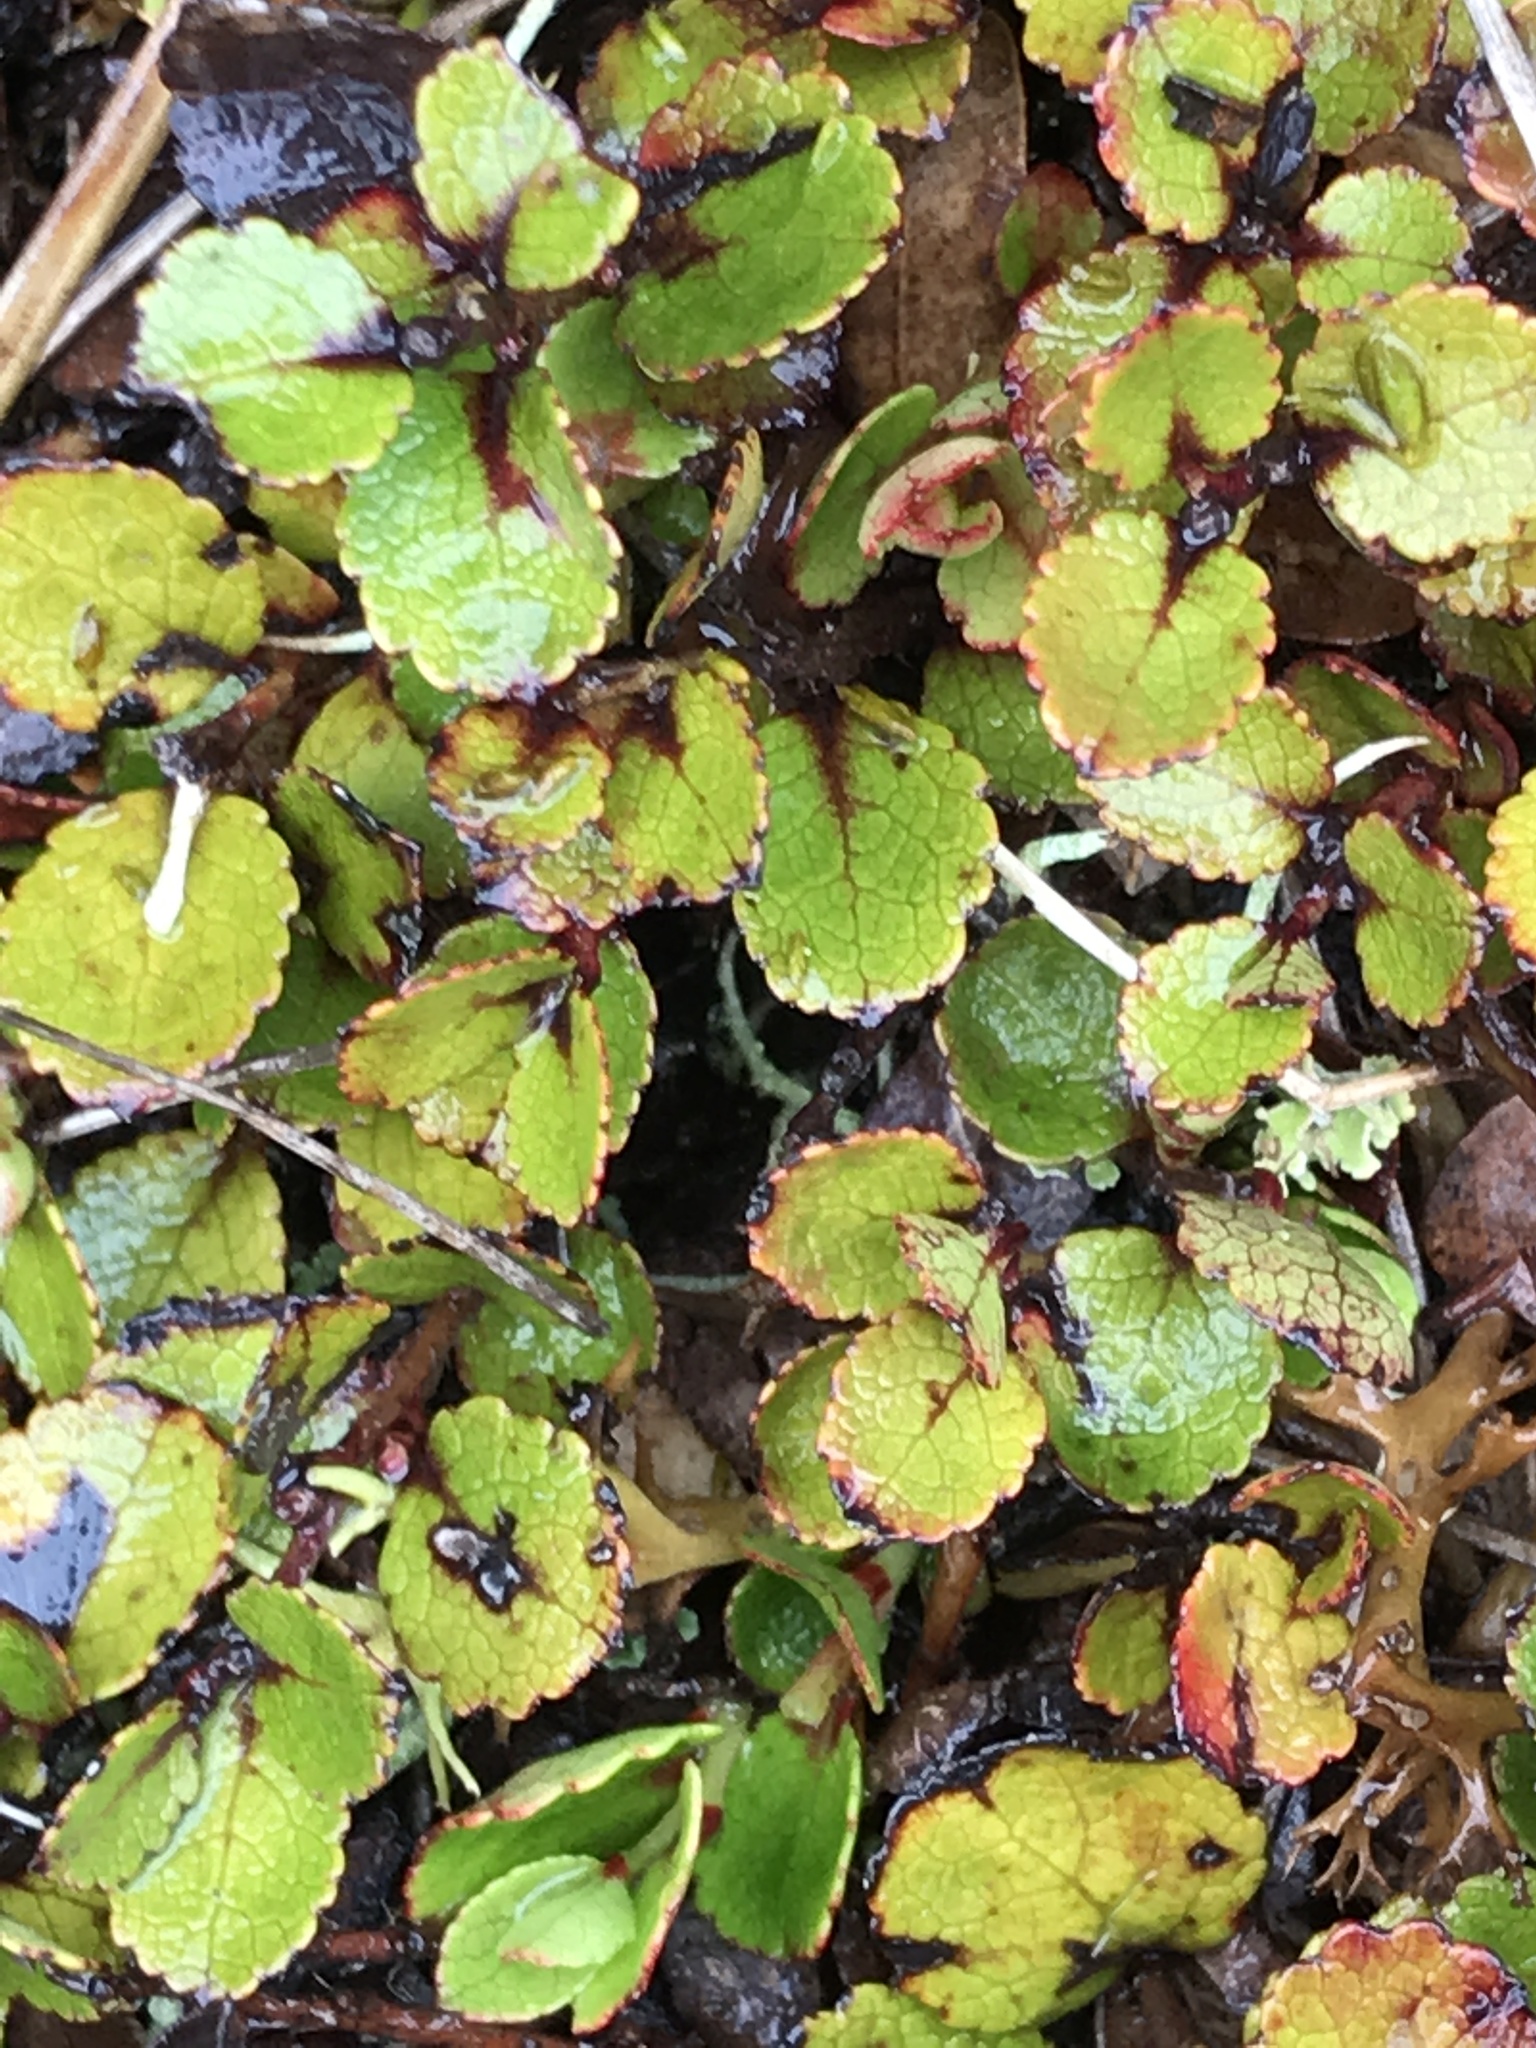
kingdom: Plantae
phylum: Tracheophyta
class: Magnoliopsida
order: Ericales
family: Ericaceae
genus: Gaultheria
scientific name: Gaultheria depressa
